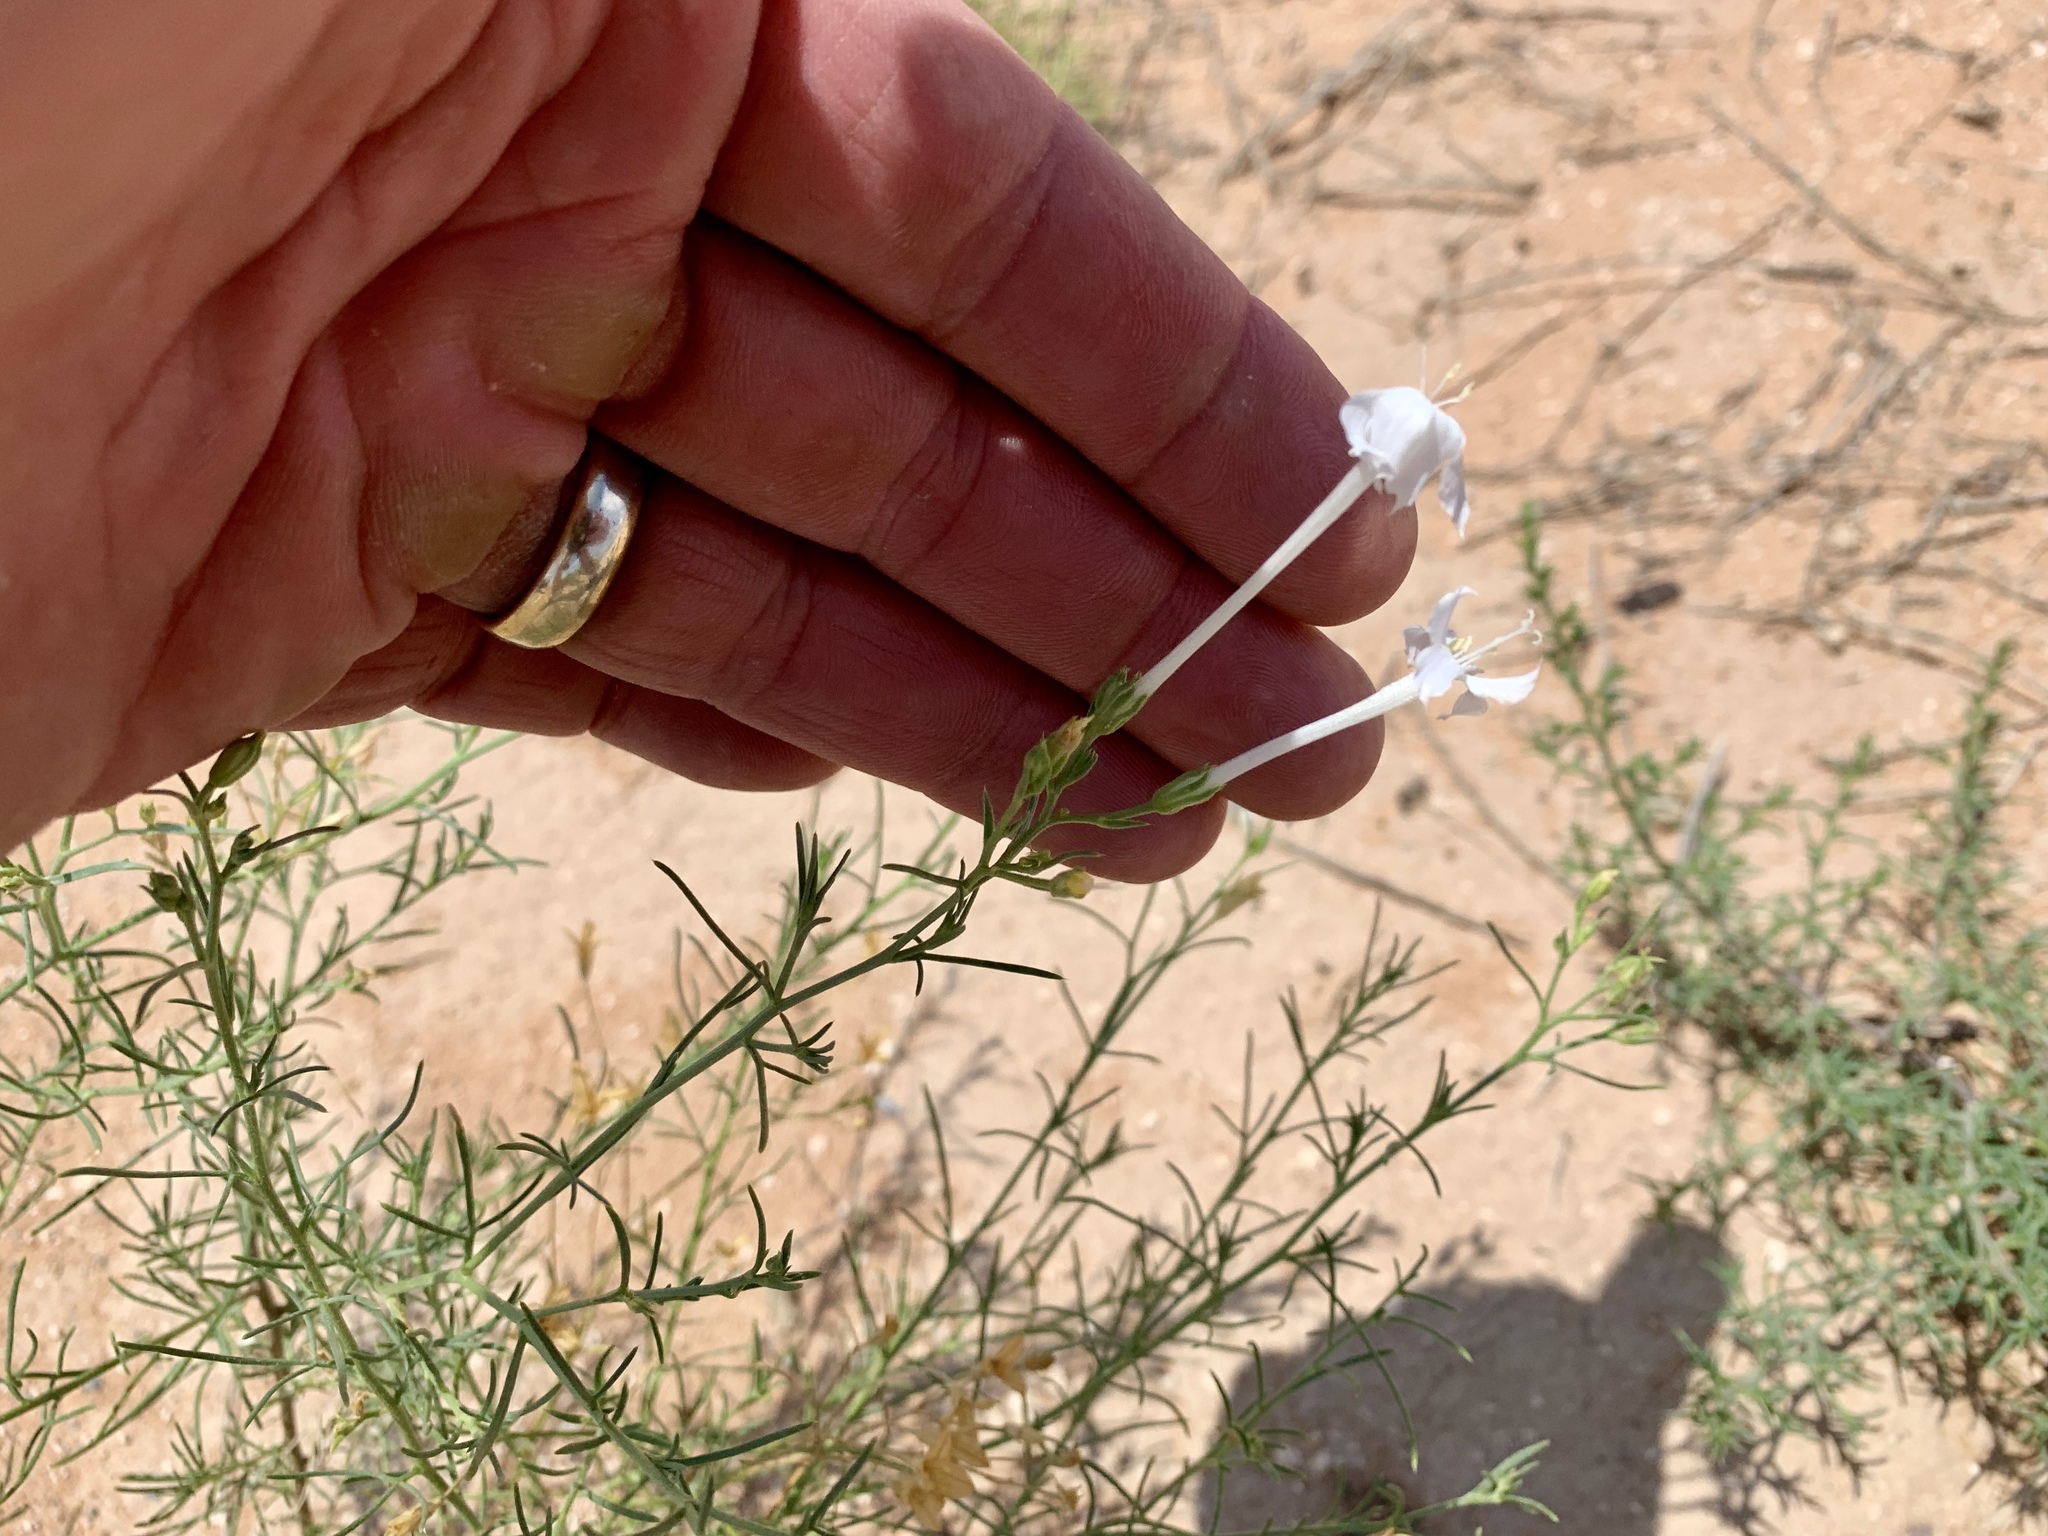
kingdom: Plantae
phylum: Tracheophyta
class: Magnoliopsida
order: Ericales
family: Polemoniaceae
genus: Ipomopsis
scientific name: Ipomopsis longiflora
